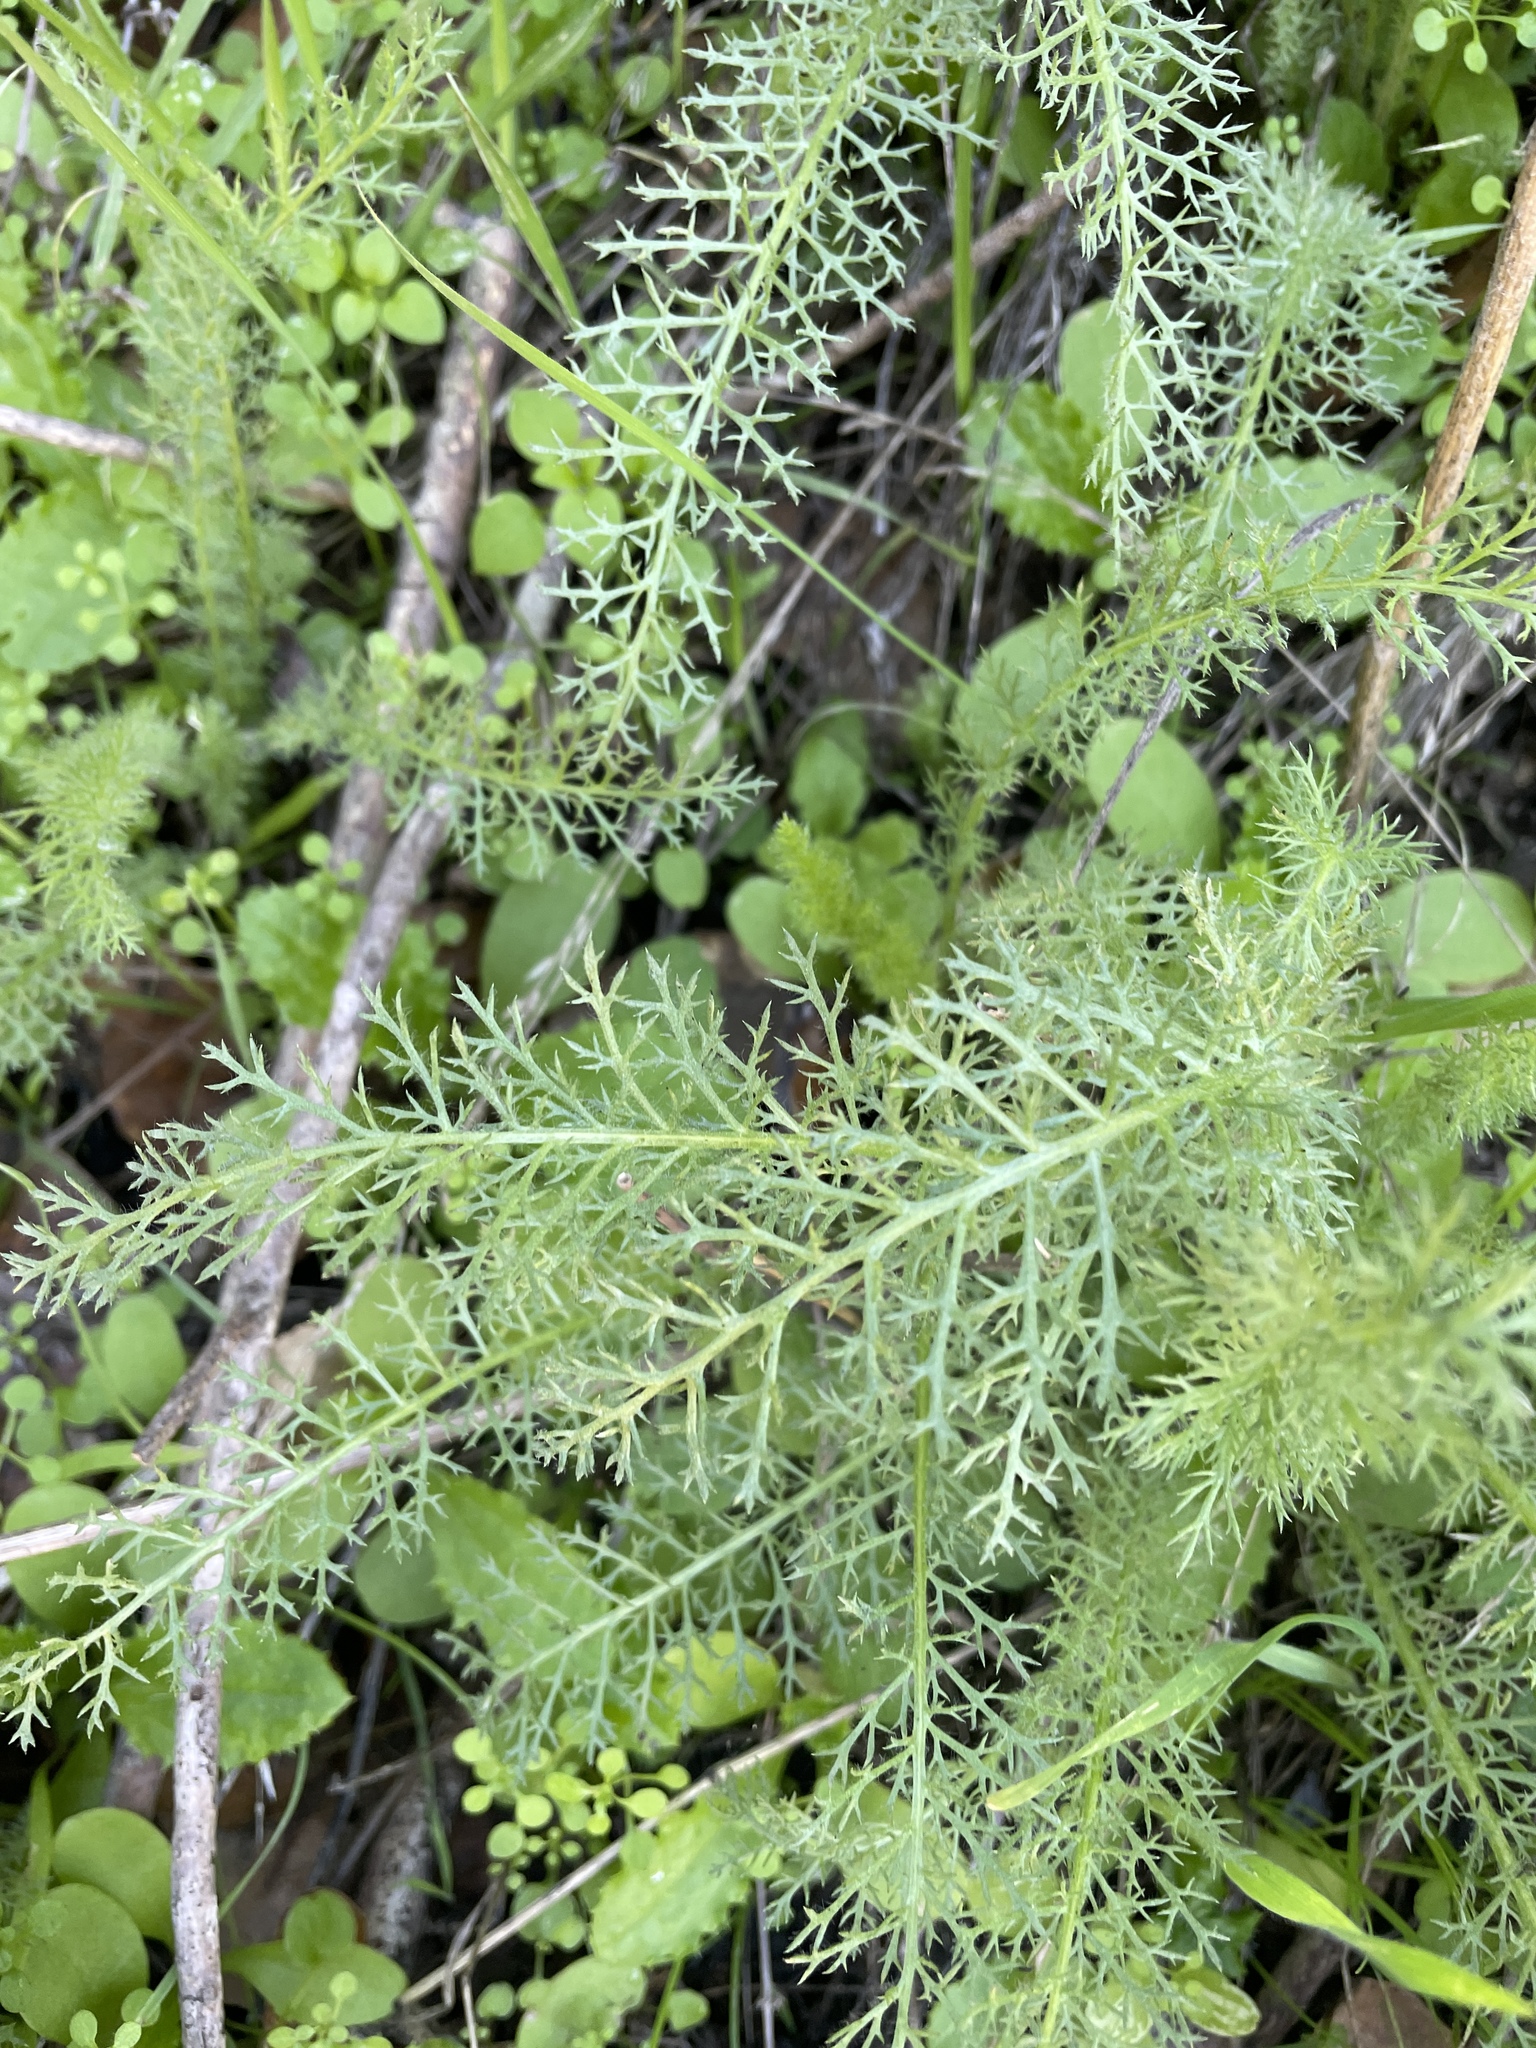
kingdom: Plantae
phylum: Tracheophyta
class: Magnoliopsida
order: Asterales
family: Asteraceae
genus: Achillea
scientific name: Achillea millefolium
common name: Yarrow
